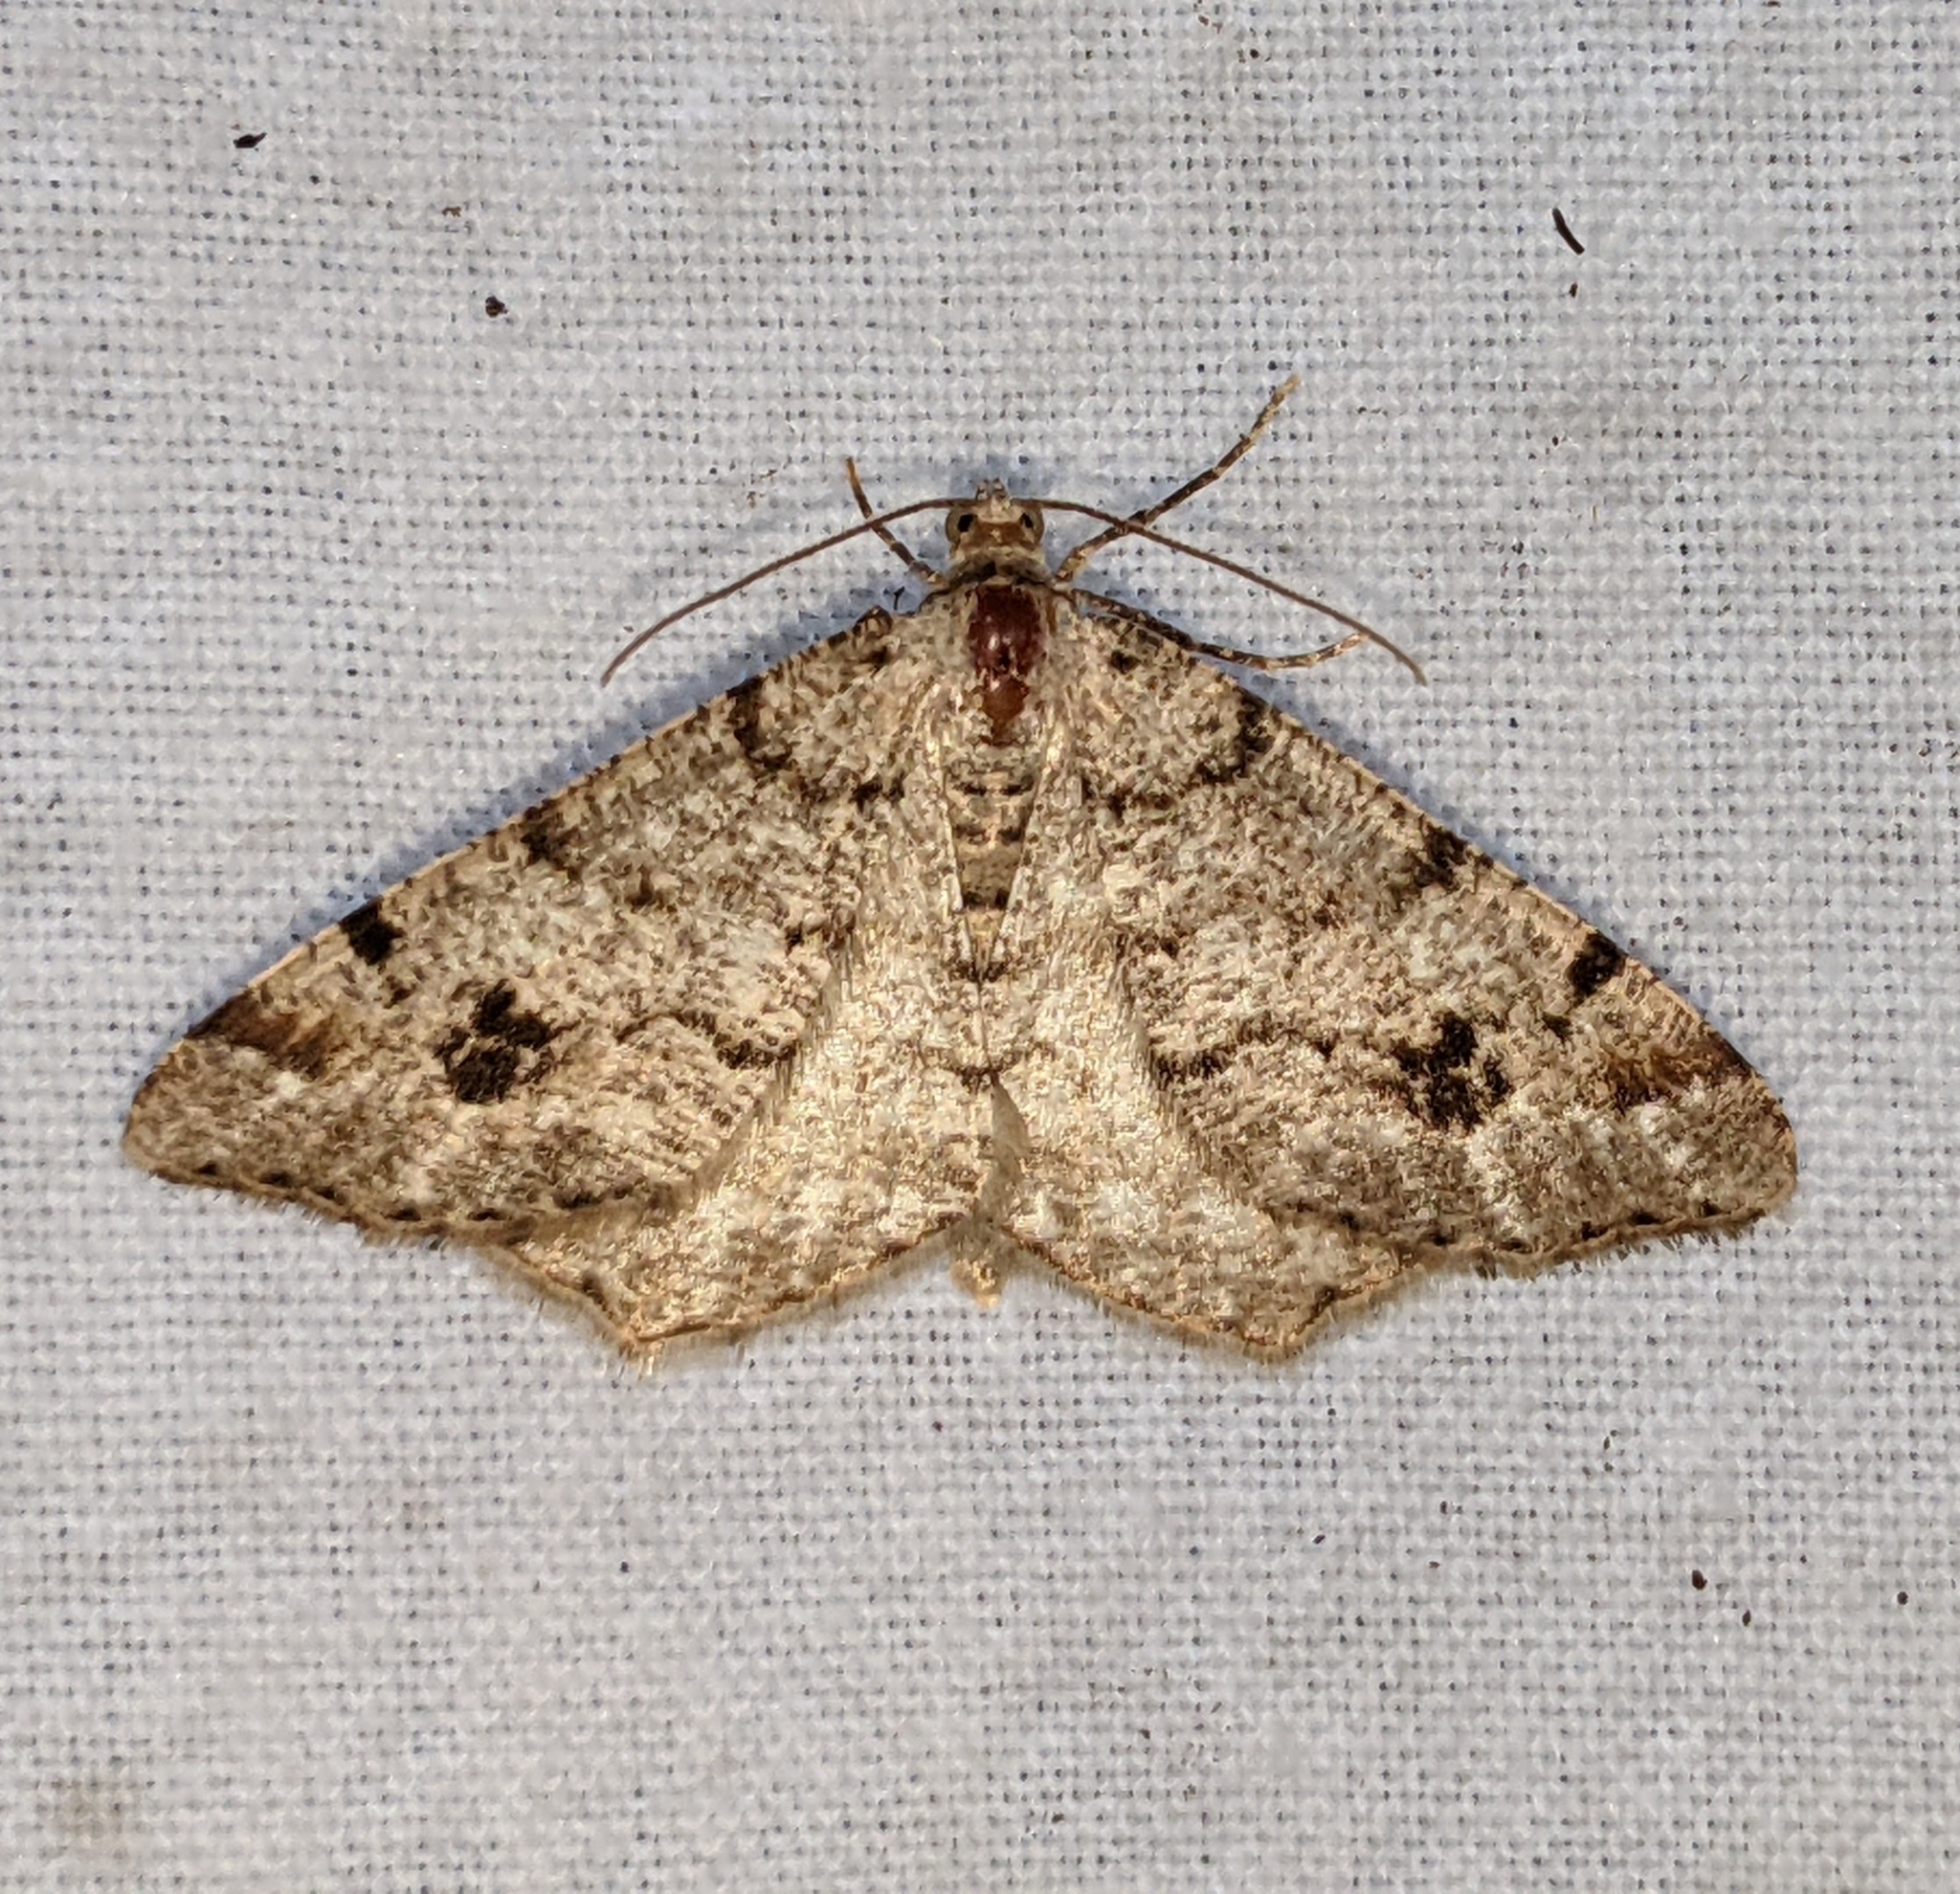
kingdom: Animalia
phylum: Arthropoda
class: Insecta
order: Lepidoptera
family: Geometridae
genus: Macaria
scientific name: Macaria signaria
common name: Dusky peacock
